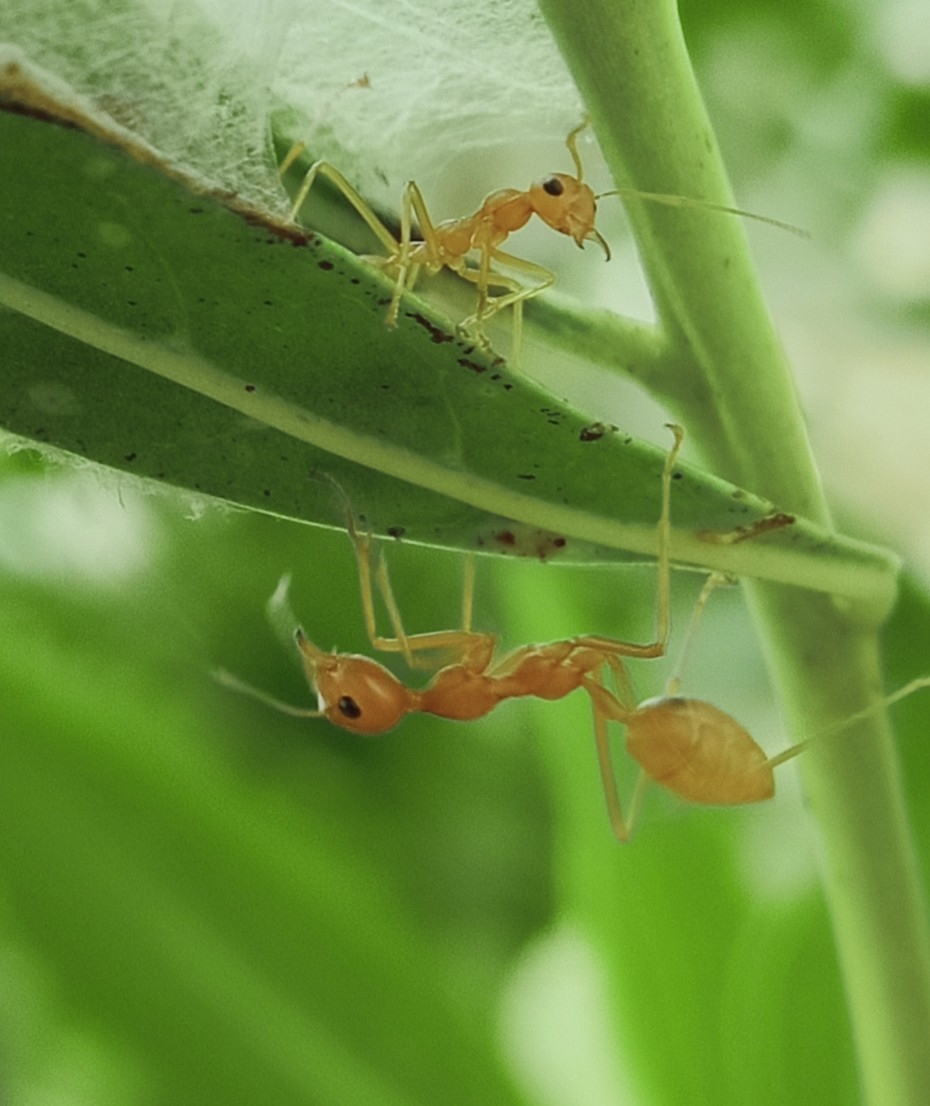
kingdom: Animalia
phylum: Arthropoda
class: Insecta
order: Hymenoptera
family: Formicidae
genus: Oecophylla
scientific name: Oecophylla smaragdina
